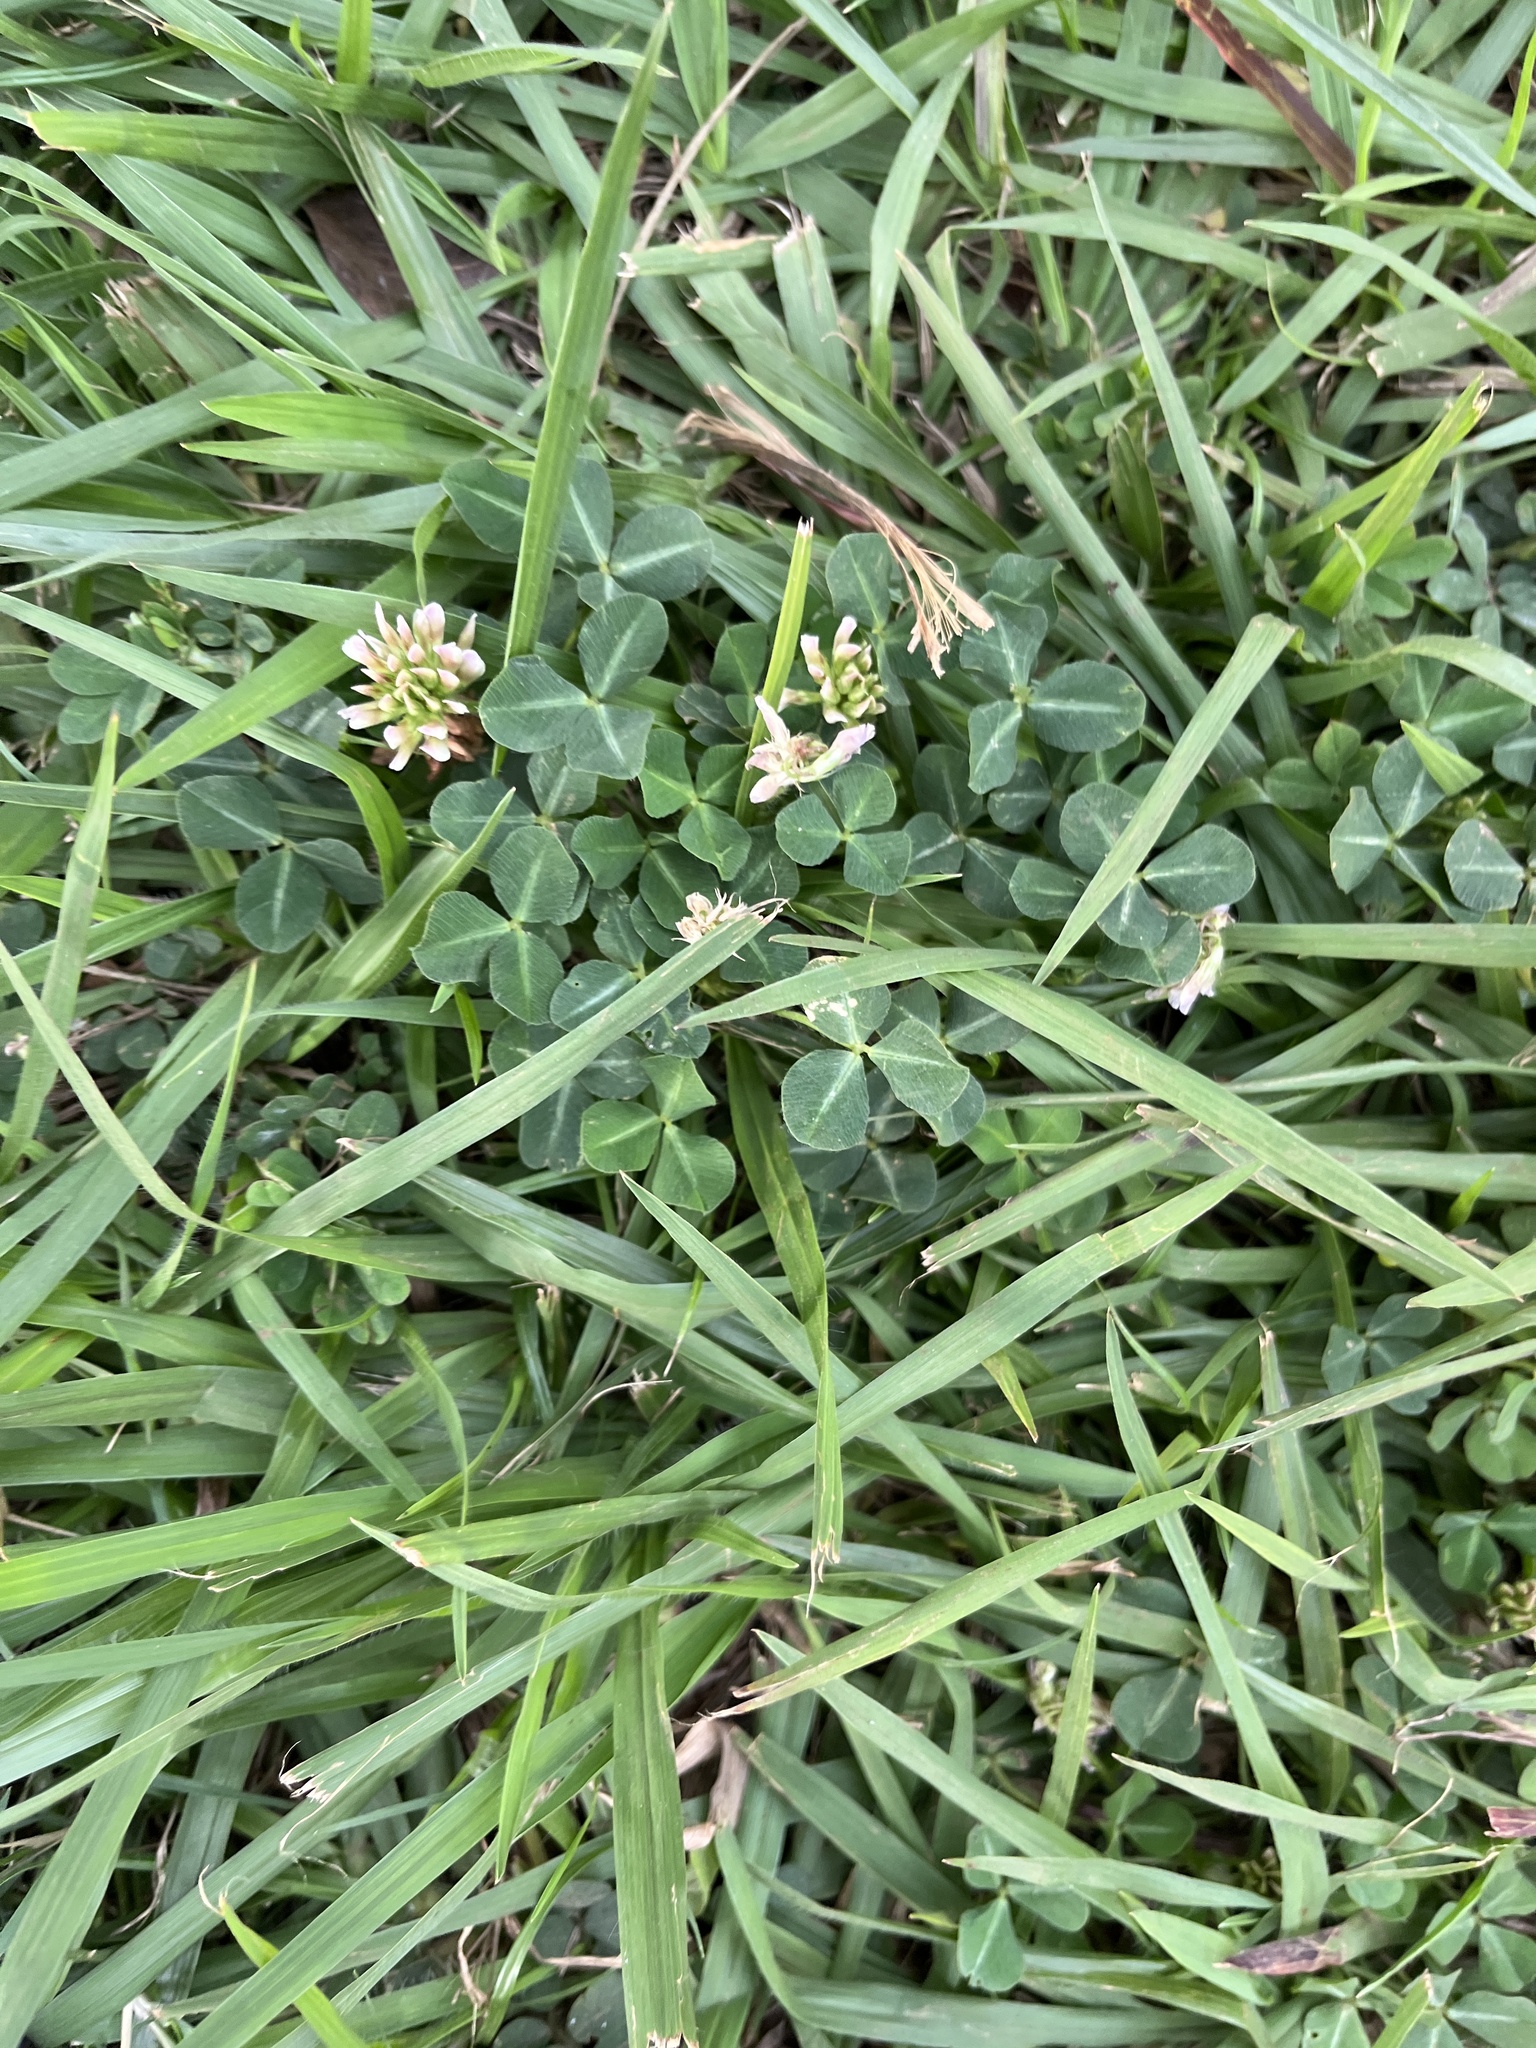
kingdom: Plantae
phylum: Tracheophyta
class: Magnoliopsida
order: Fabales
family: Fabaceae
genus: Trifolium
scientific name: Trifolium repens
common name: White clover
